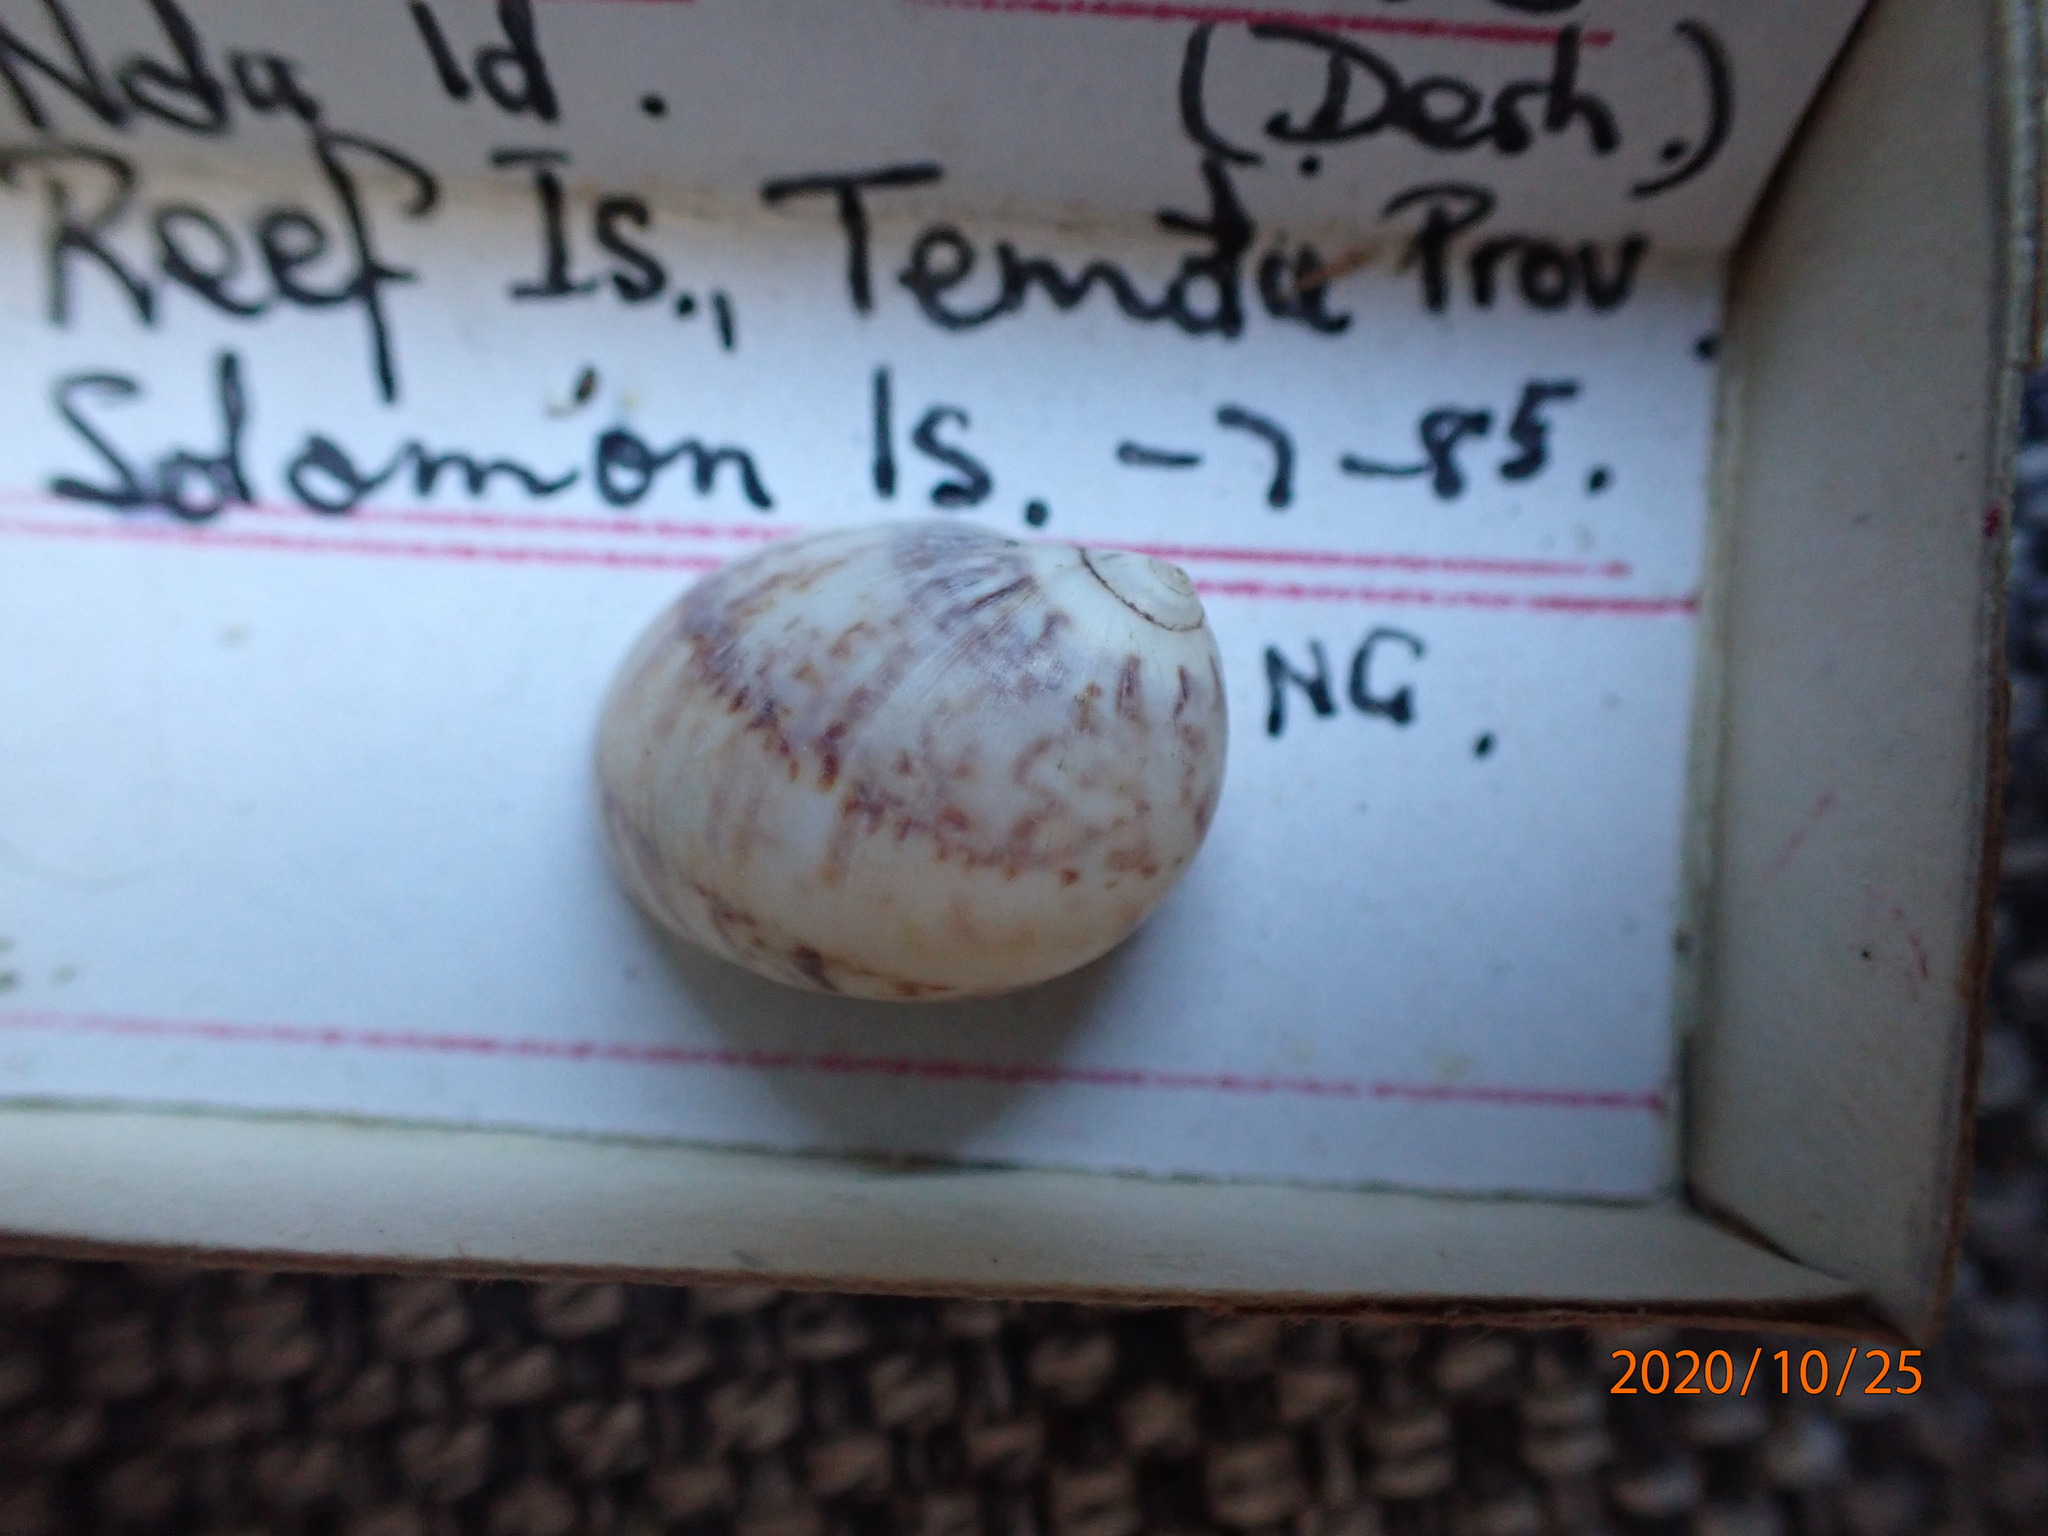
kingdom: Animalia
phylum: Mollusca
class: Gastropoda
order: Littorinimorpha
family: Naticidae
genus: Mammilla
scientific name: Mammilla simiae
